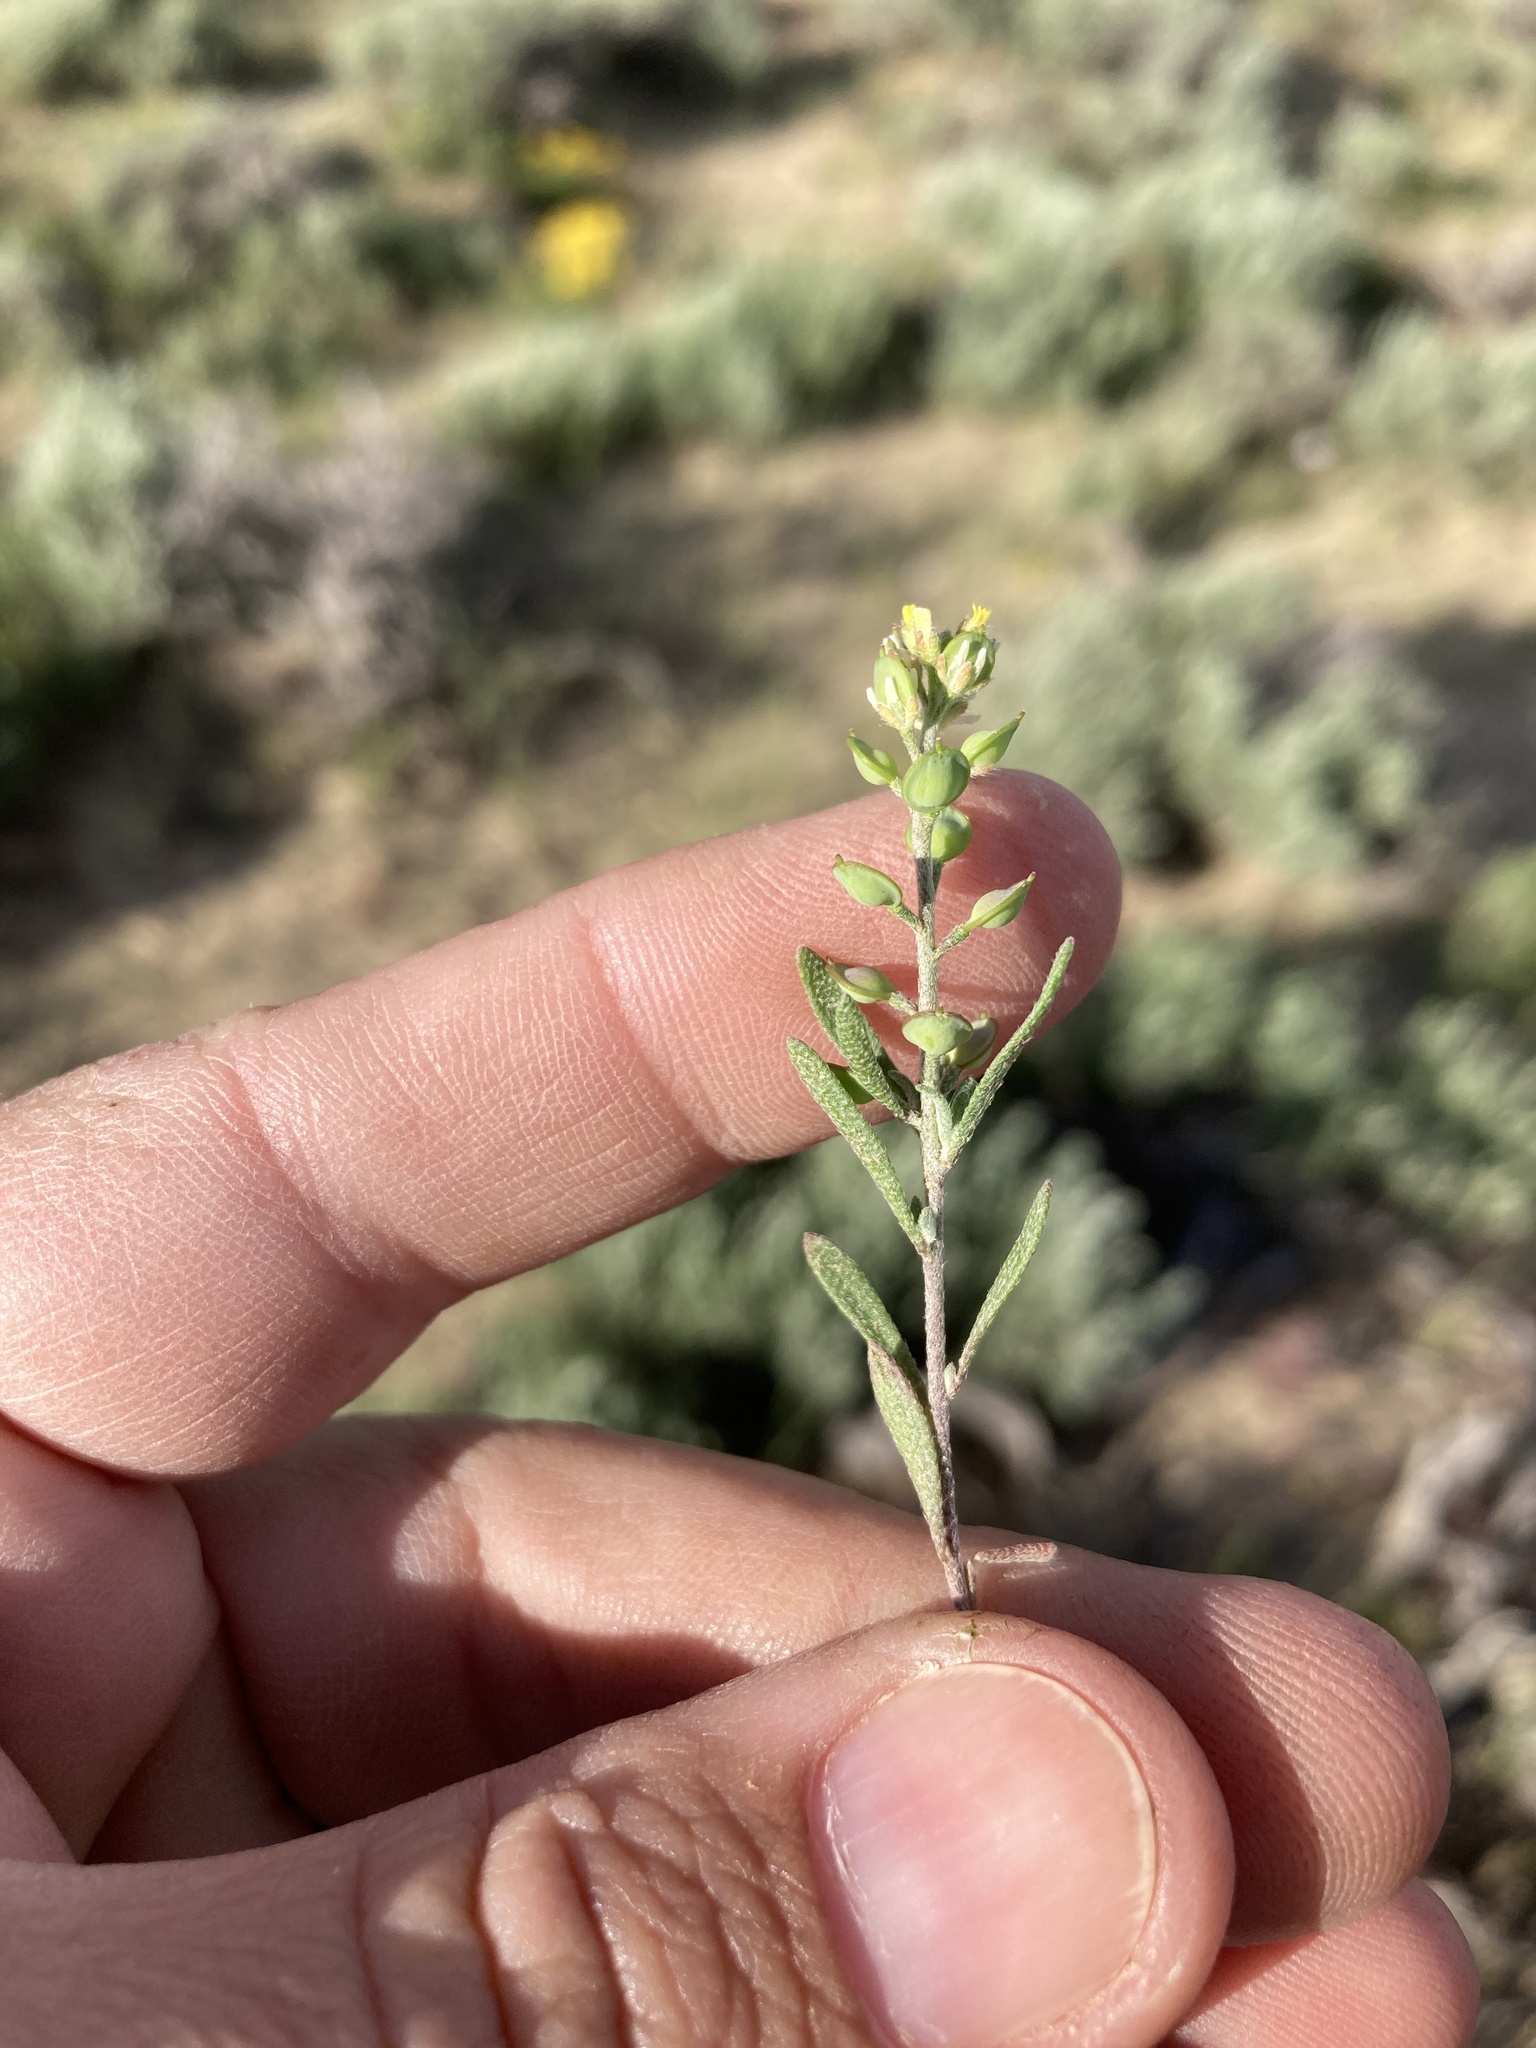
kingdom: Plantae
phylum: Tracheophyta
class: Magnoliopsida
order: Brassicales
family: Brassicaceae
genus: Alyssum
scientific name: Alyssum turkestanicum
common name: Desert alyssum
